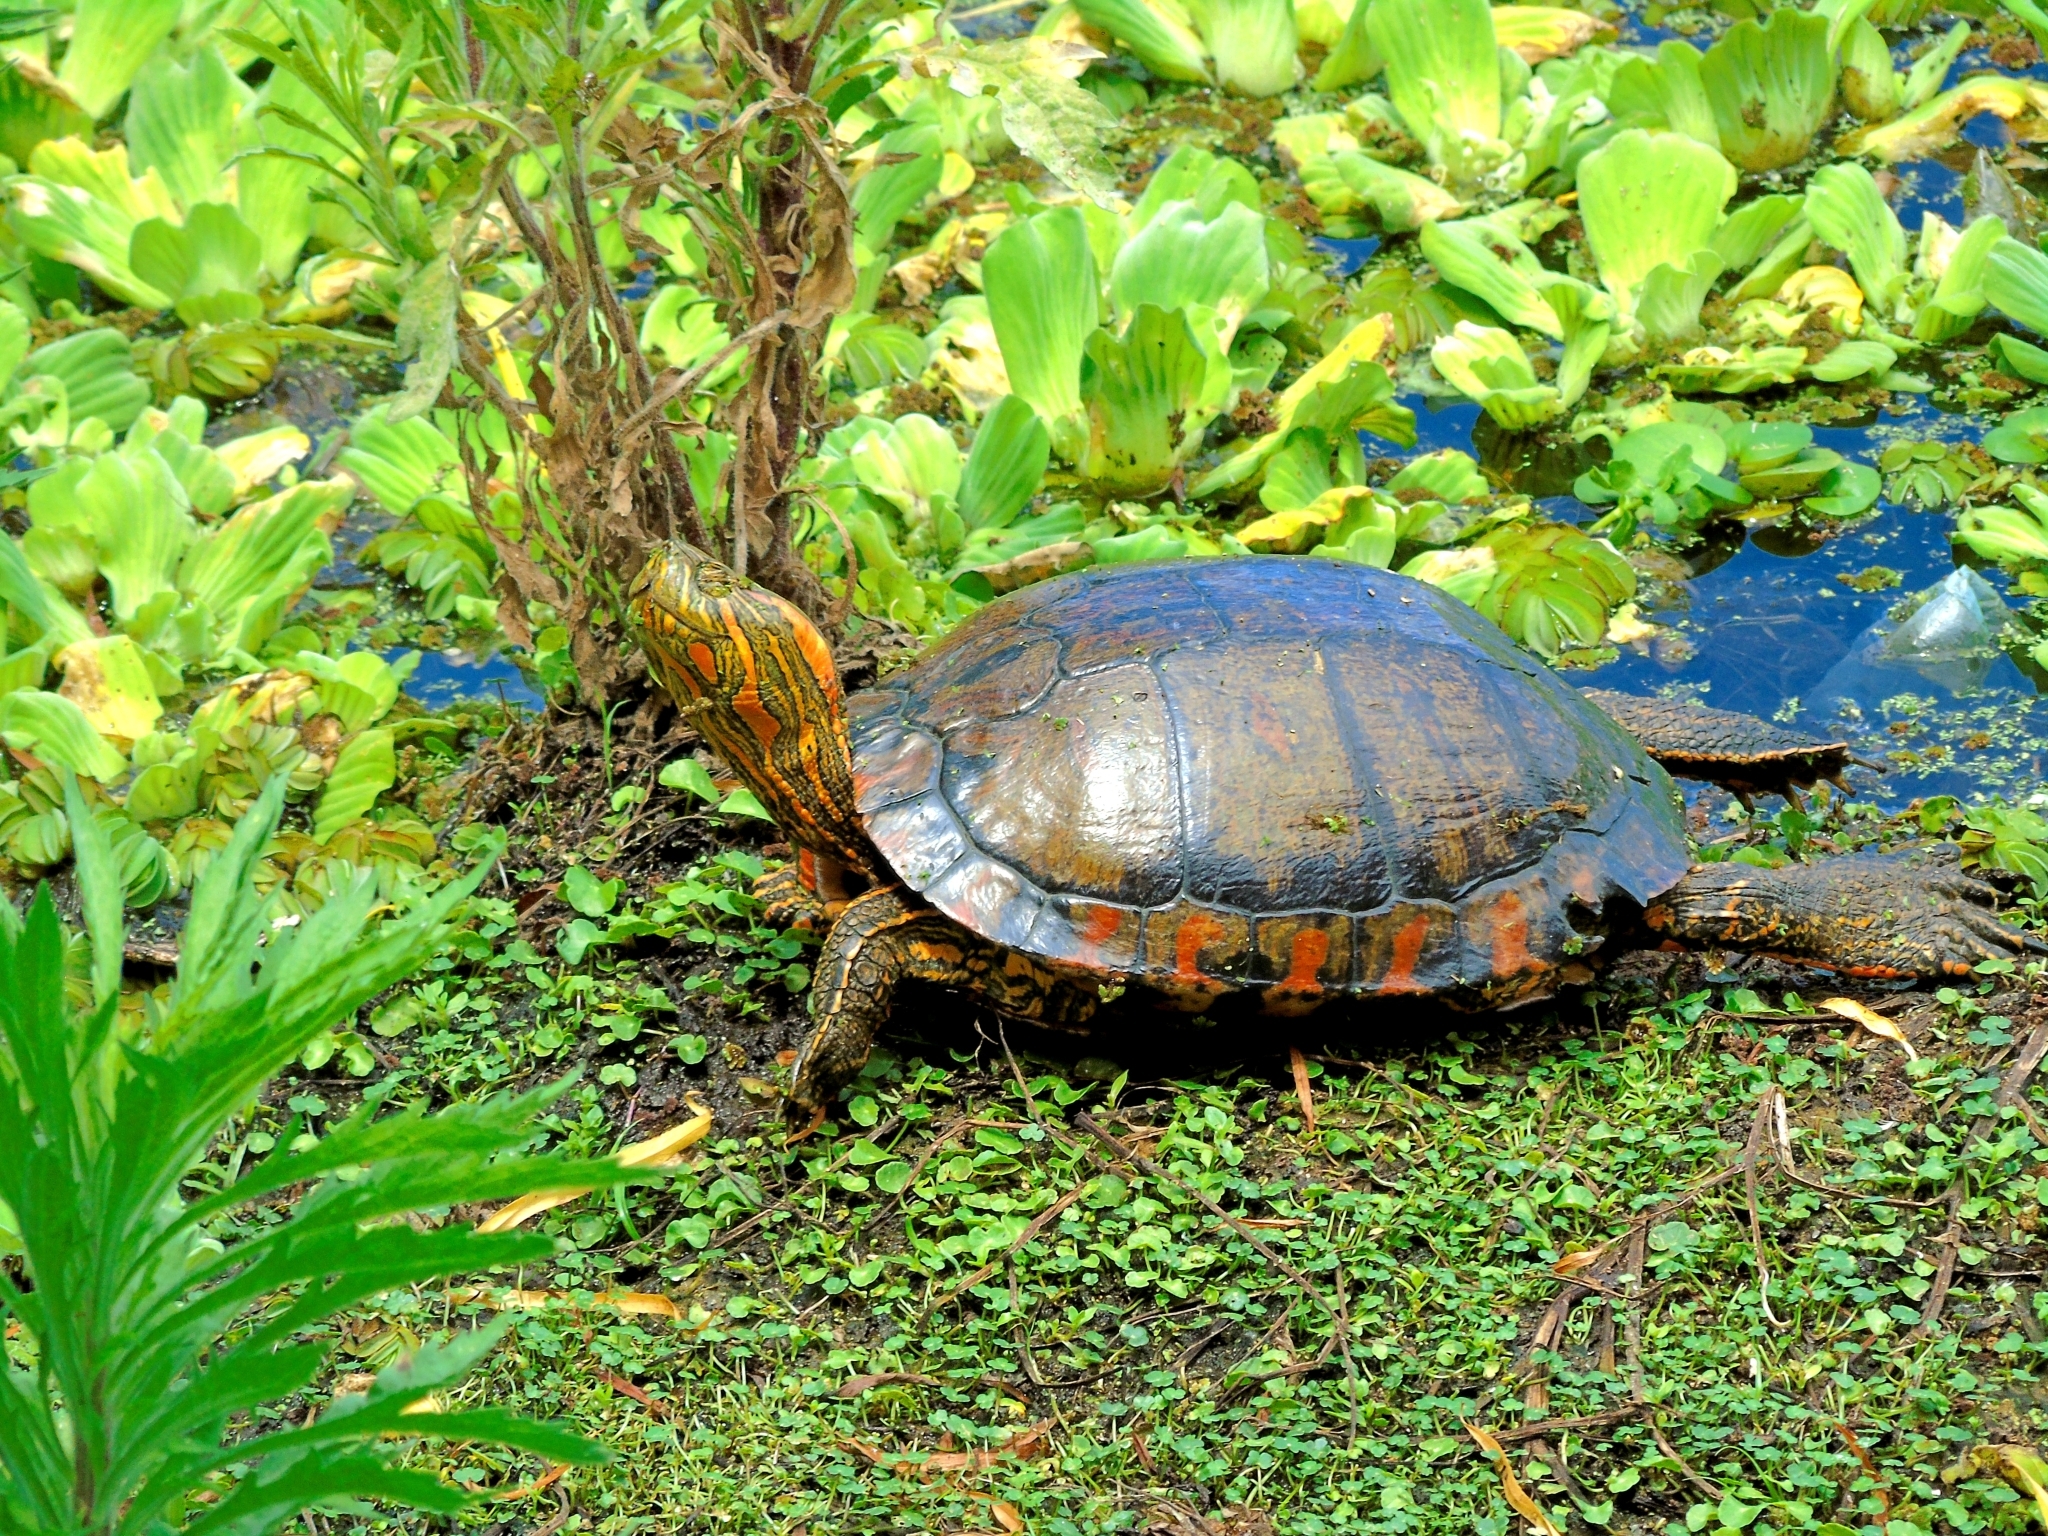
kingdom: Animalia
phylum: Chordata
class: Testudines
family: Emydidae
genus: Trachemys
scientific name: Trachemys dorbigni
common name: Black-bellied slider
